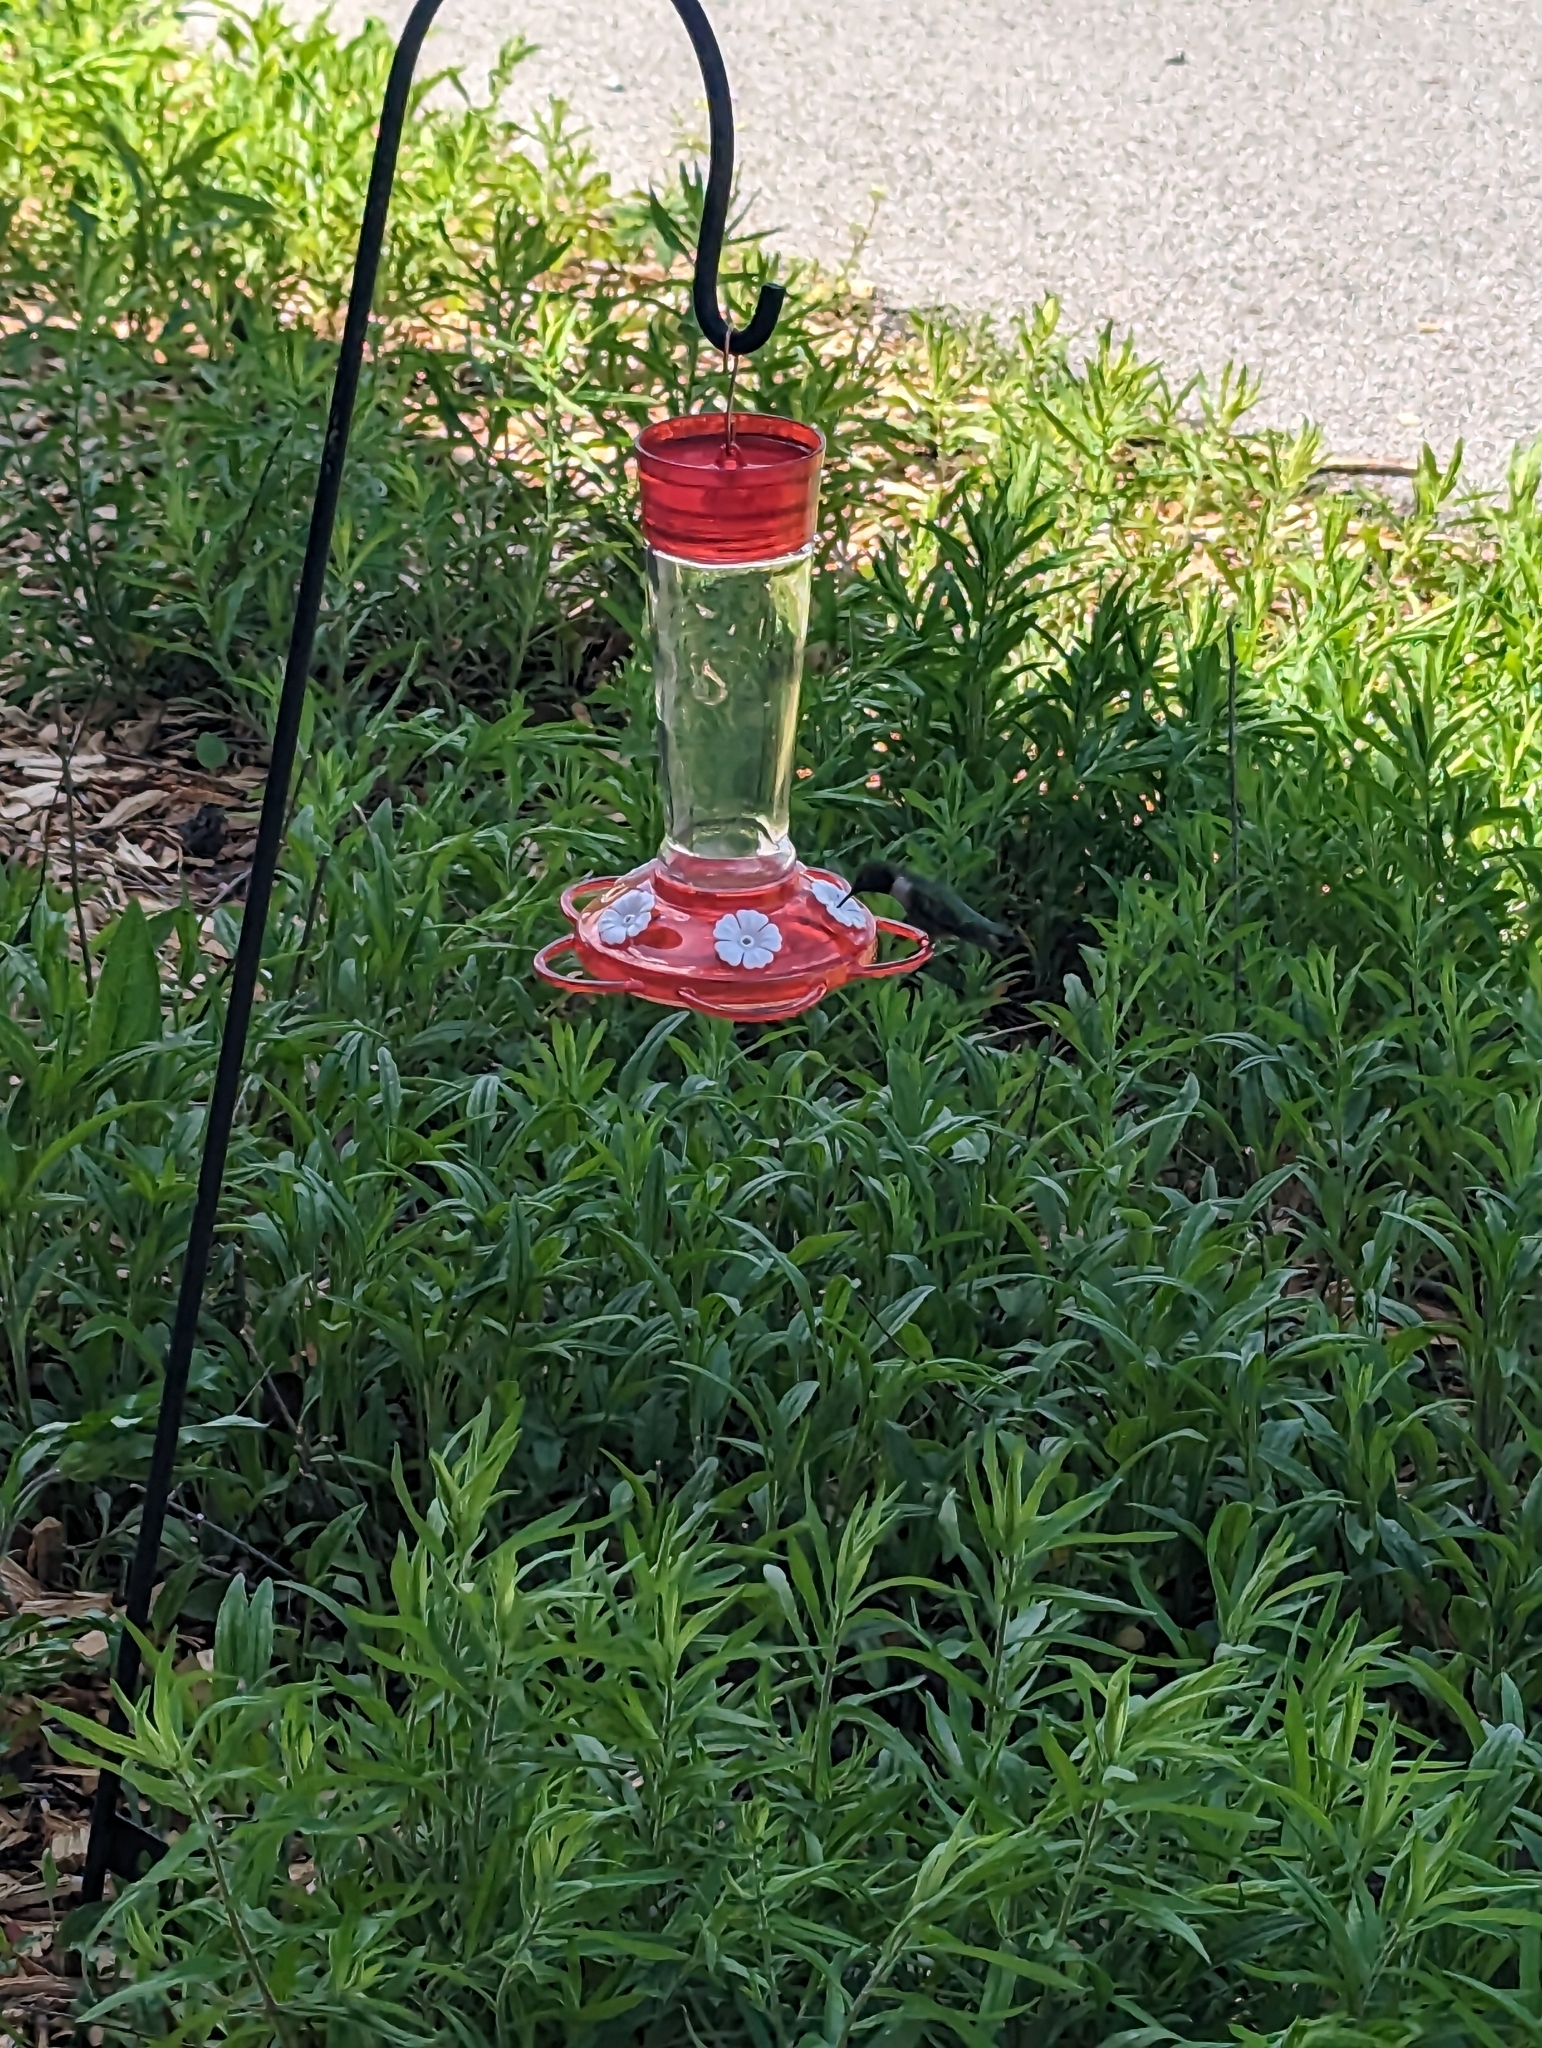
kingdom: Animalia
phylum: Chordata
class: Aves
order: Apodiformes
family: Trochilidae
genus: Archilochus
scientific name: Archilochus colubris
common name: Ruby-throated hummingbird
